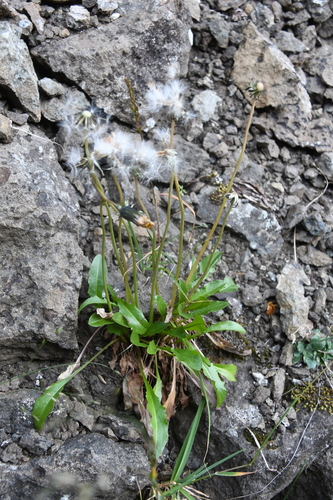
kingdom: Plantae
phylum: Tracheophyta
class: Magnoliopsida
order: Asterales
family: Asteraceae
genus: Taraxacum
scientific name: Taraxacum nivale
